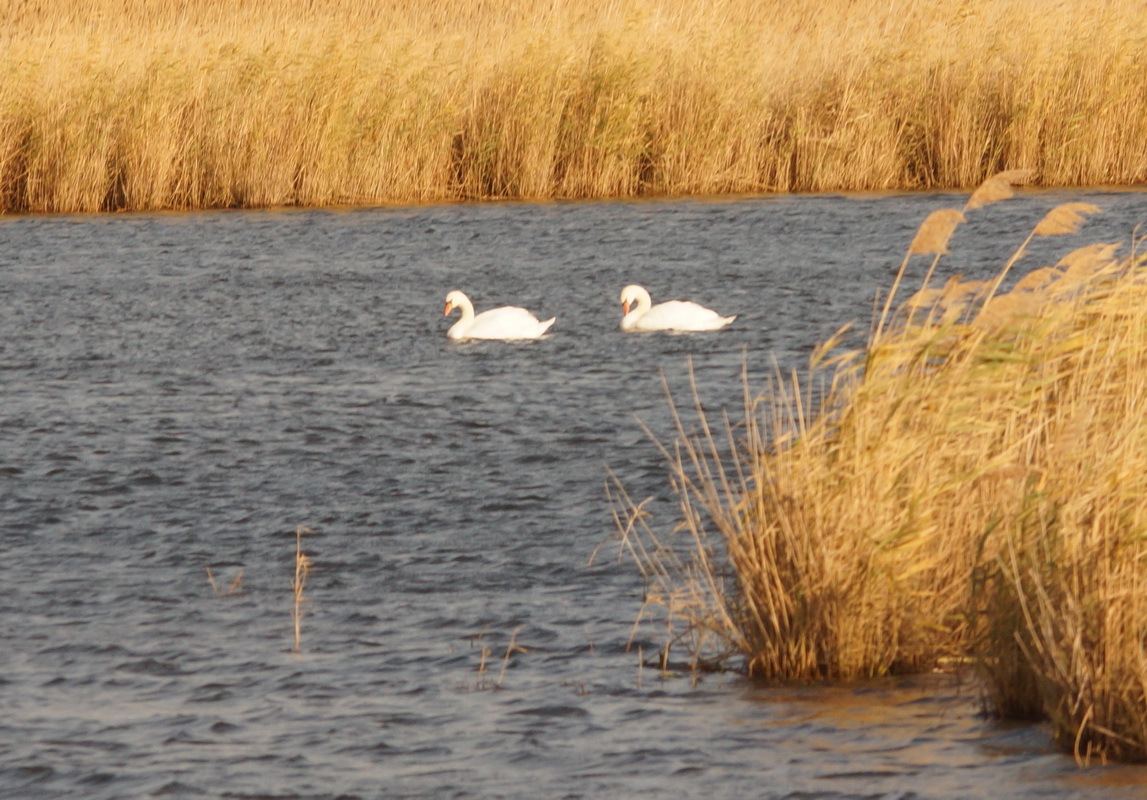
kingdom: Animalia
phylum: Chordata
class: Aves
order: Anseriformes
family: Anatidae
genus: Cygnus
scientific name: Cygnus olor
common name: Mute swan
